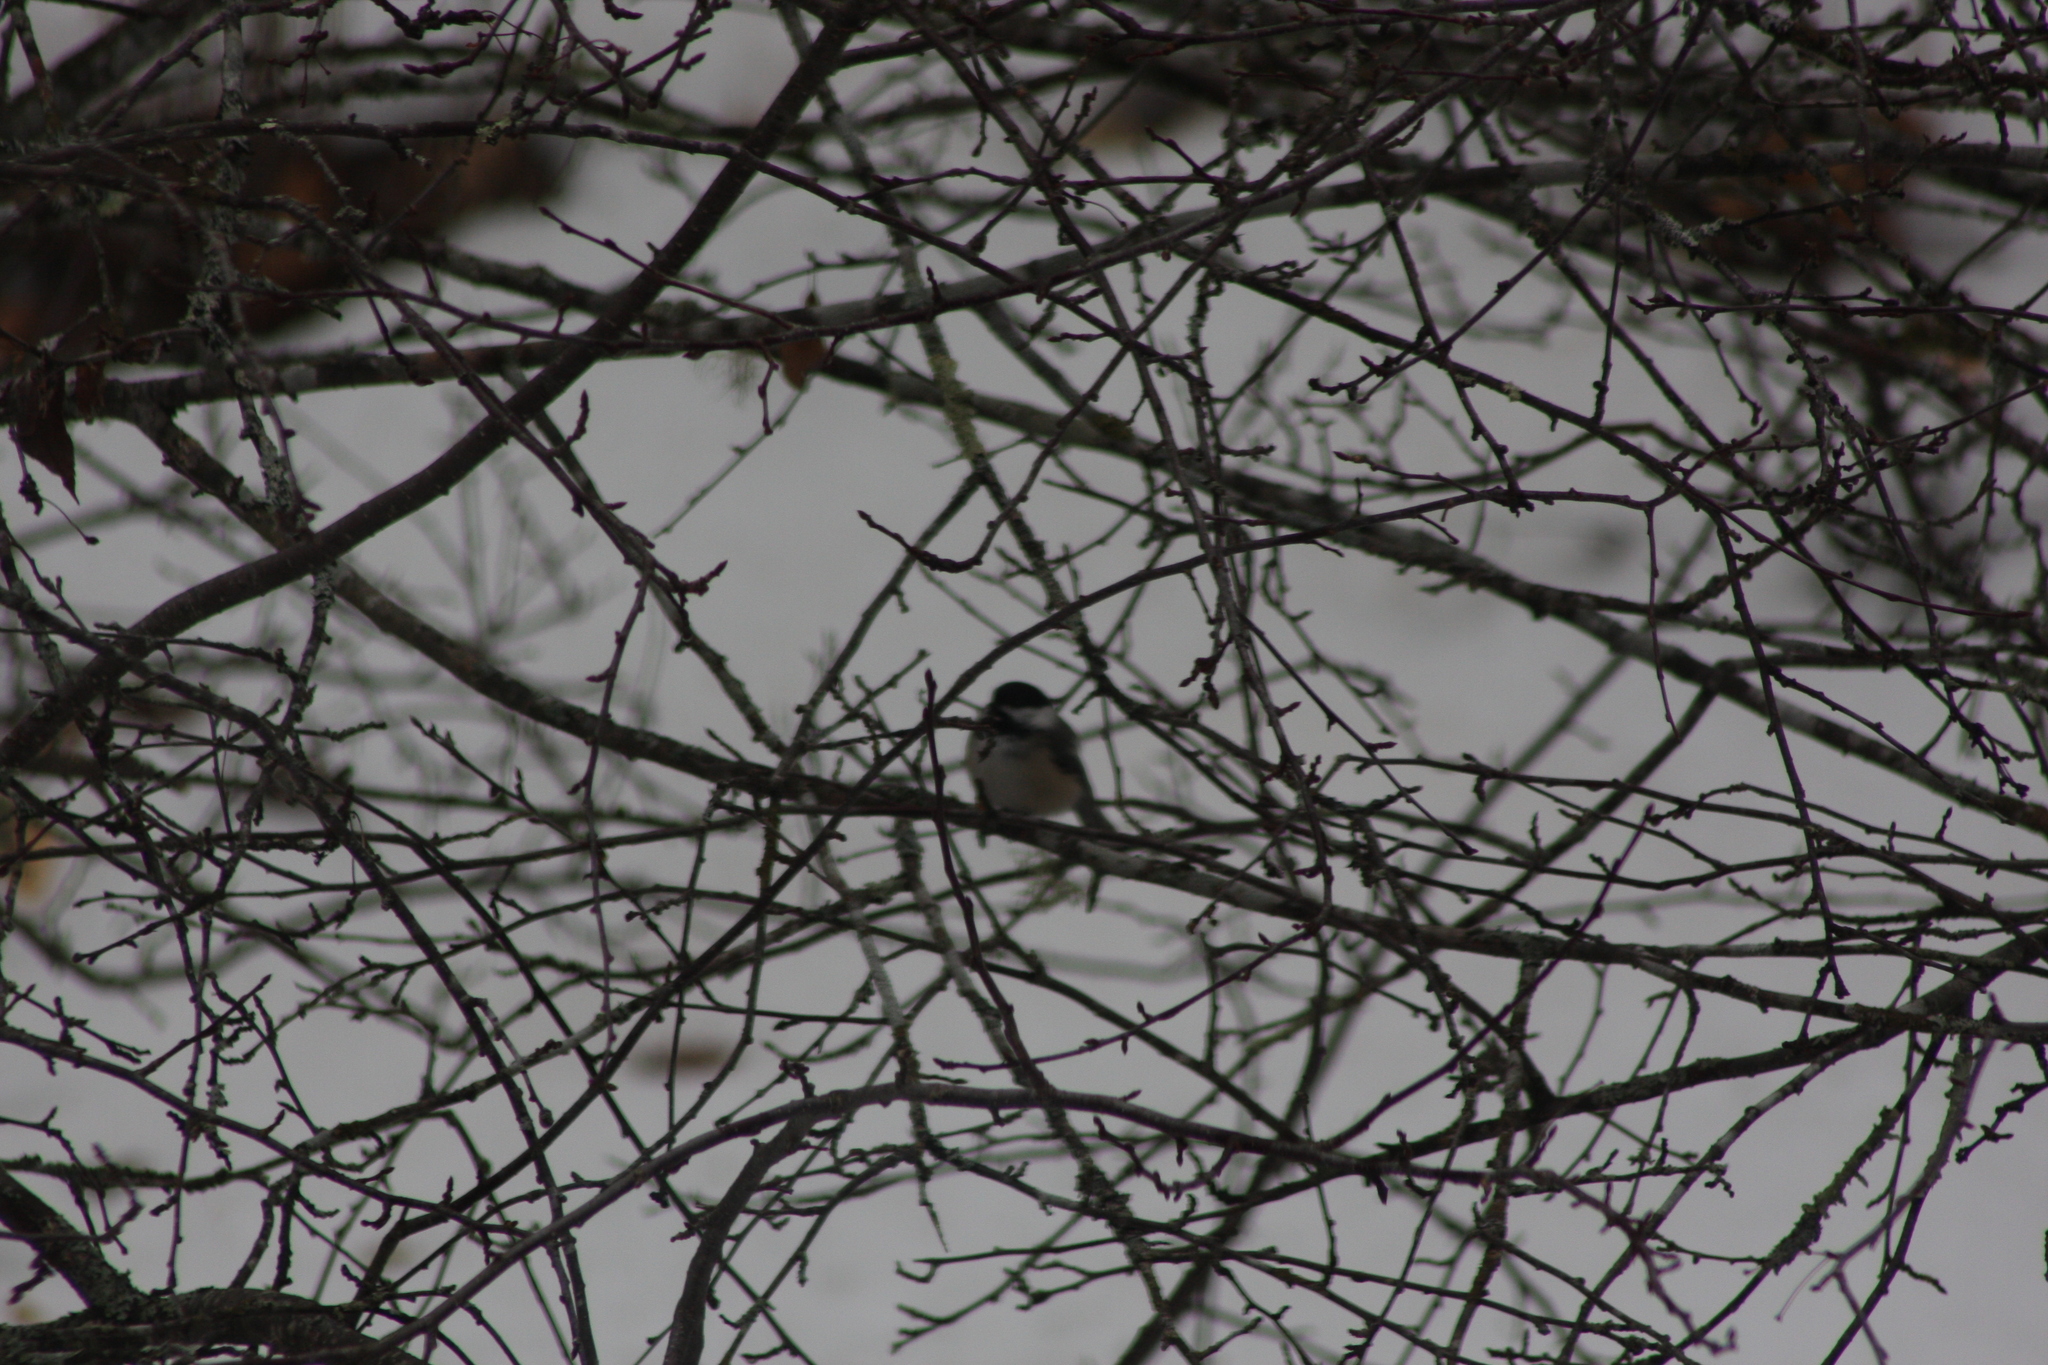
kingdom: Animalia
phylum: Chordata
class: Aves
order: Passeriformes
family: Paridae
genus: Poecile
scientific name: Poecile atricapillus
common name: Black-capped chickadee
